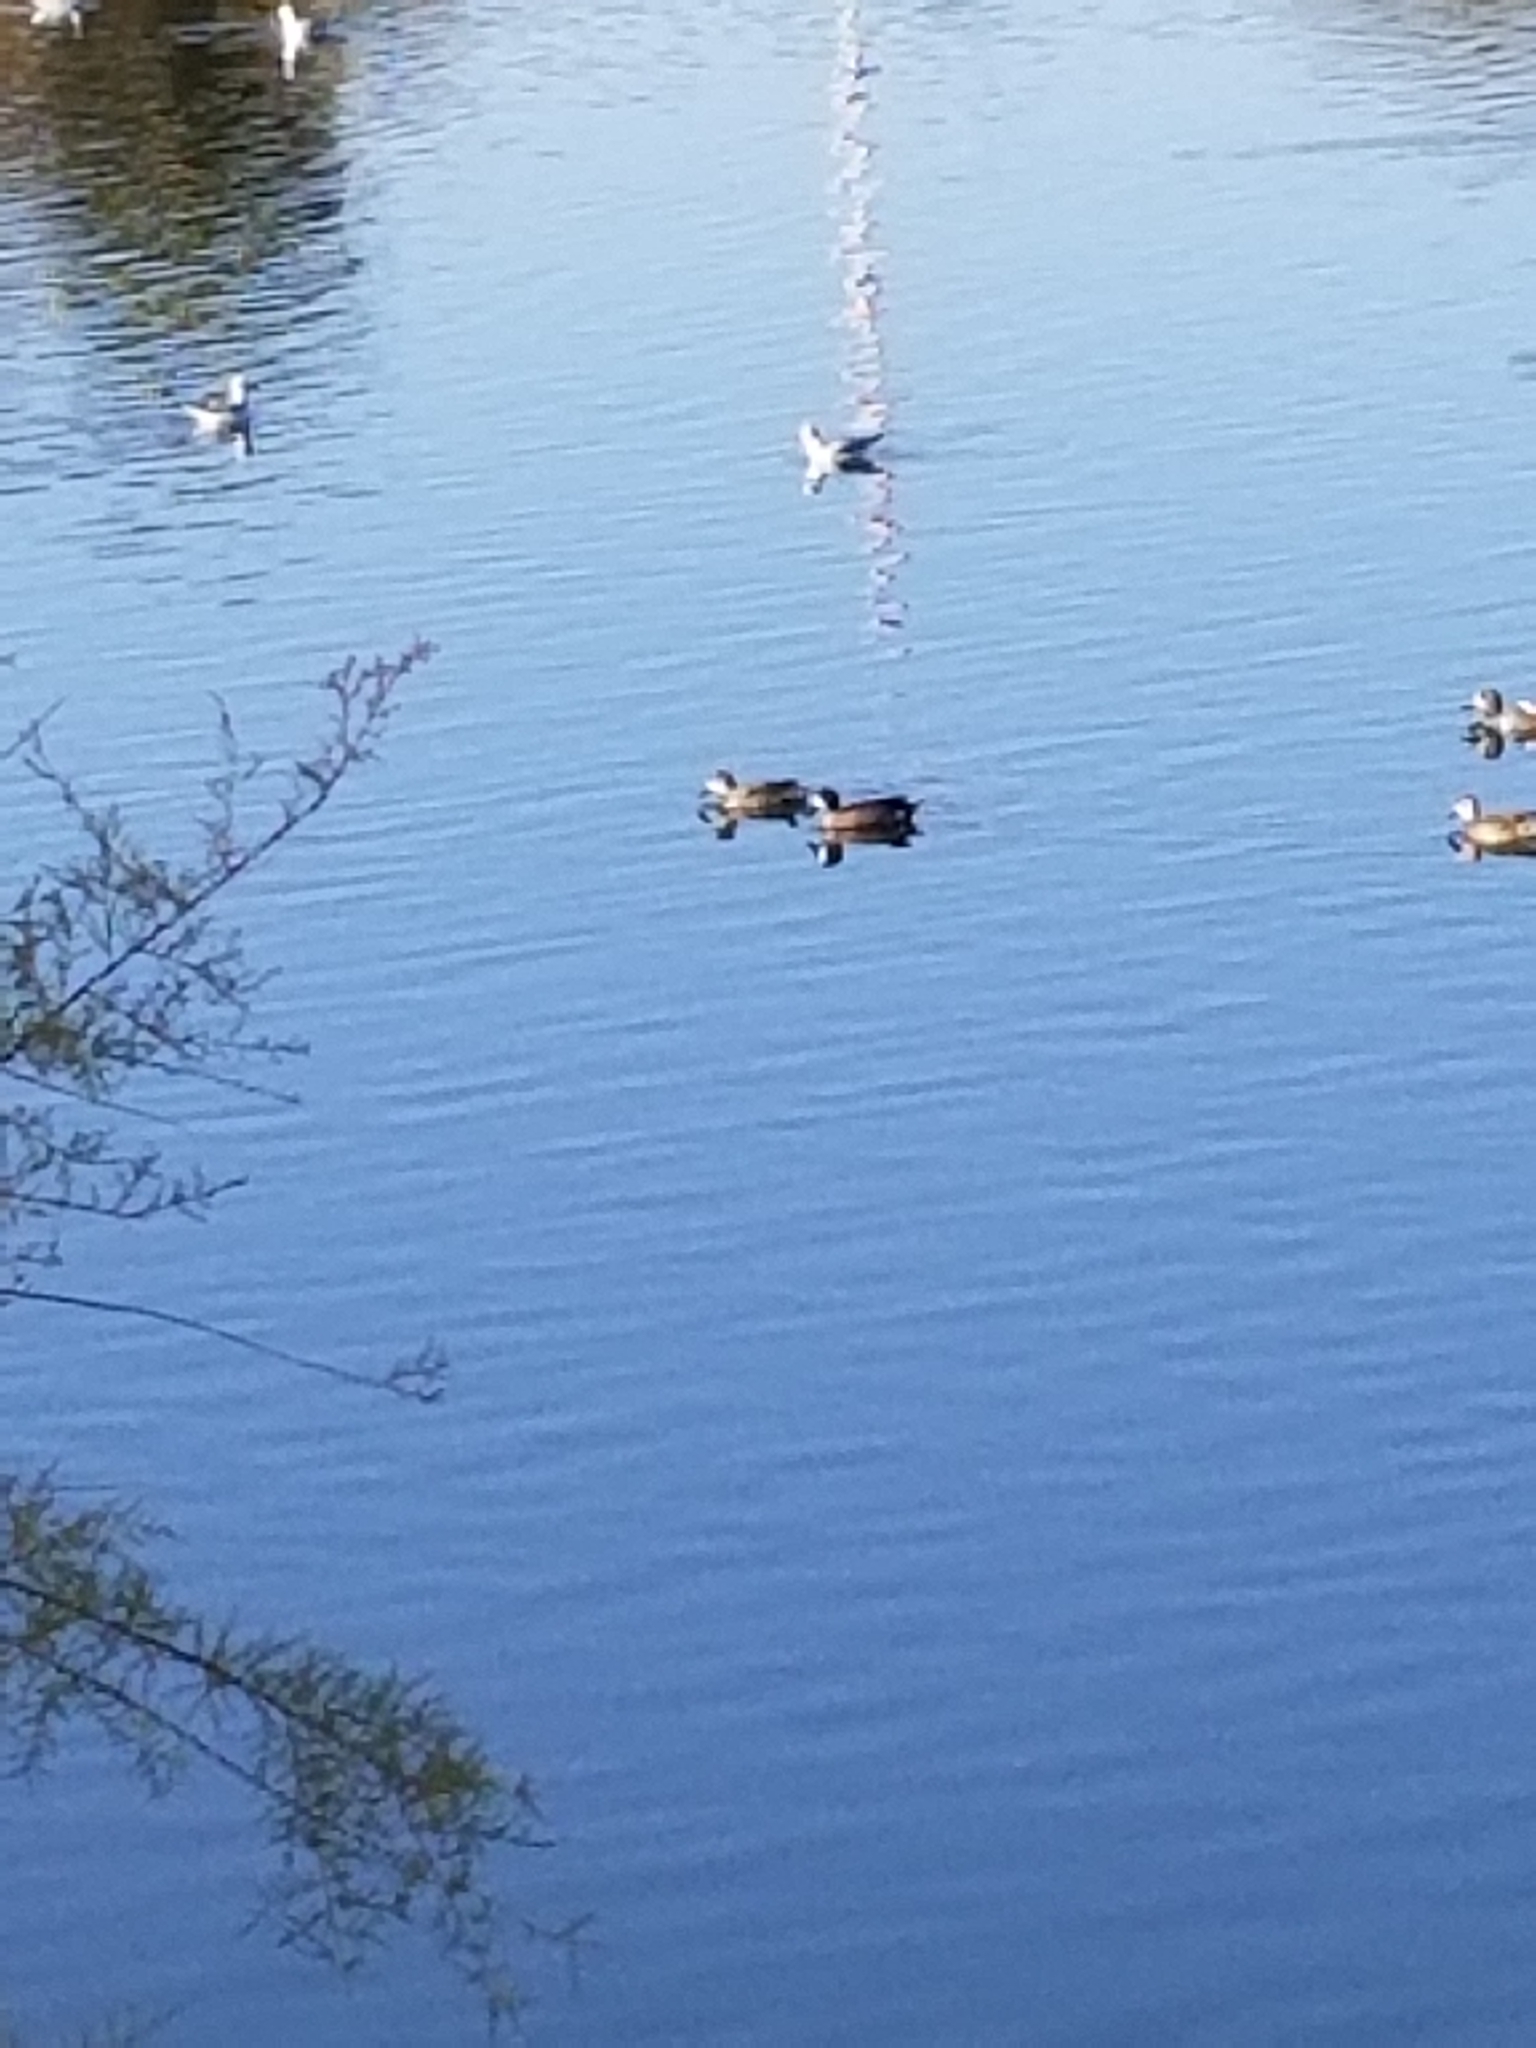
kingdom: Animalia
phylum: Chordata
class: Aves
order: Anseriformes
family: Anatidae
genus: Spatula
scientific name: Spatula discors
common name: Blue-winged teal
